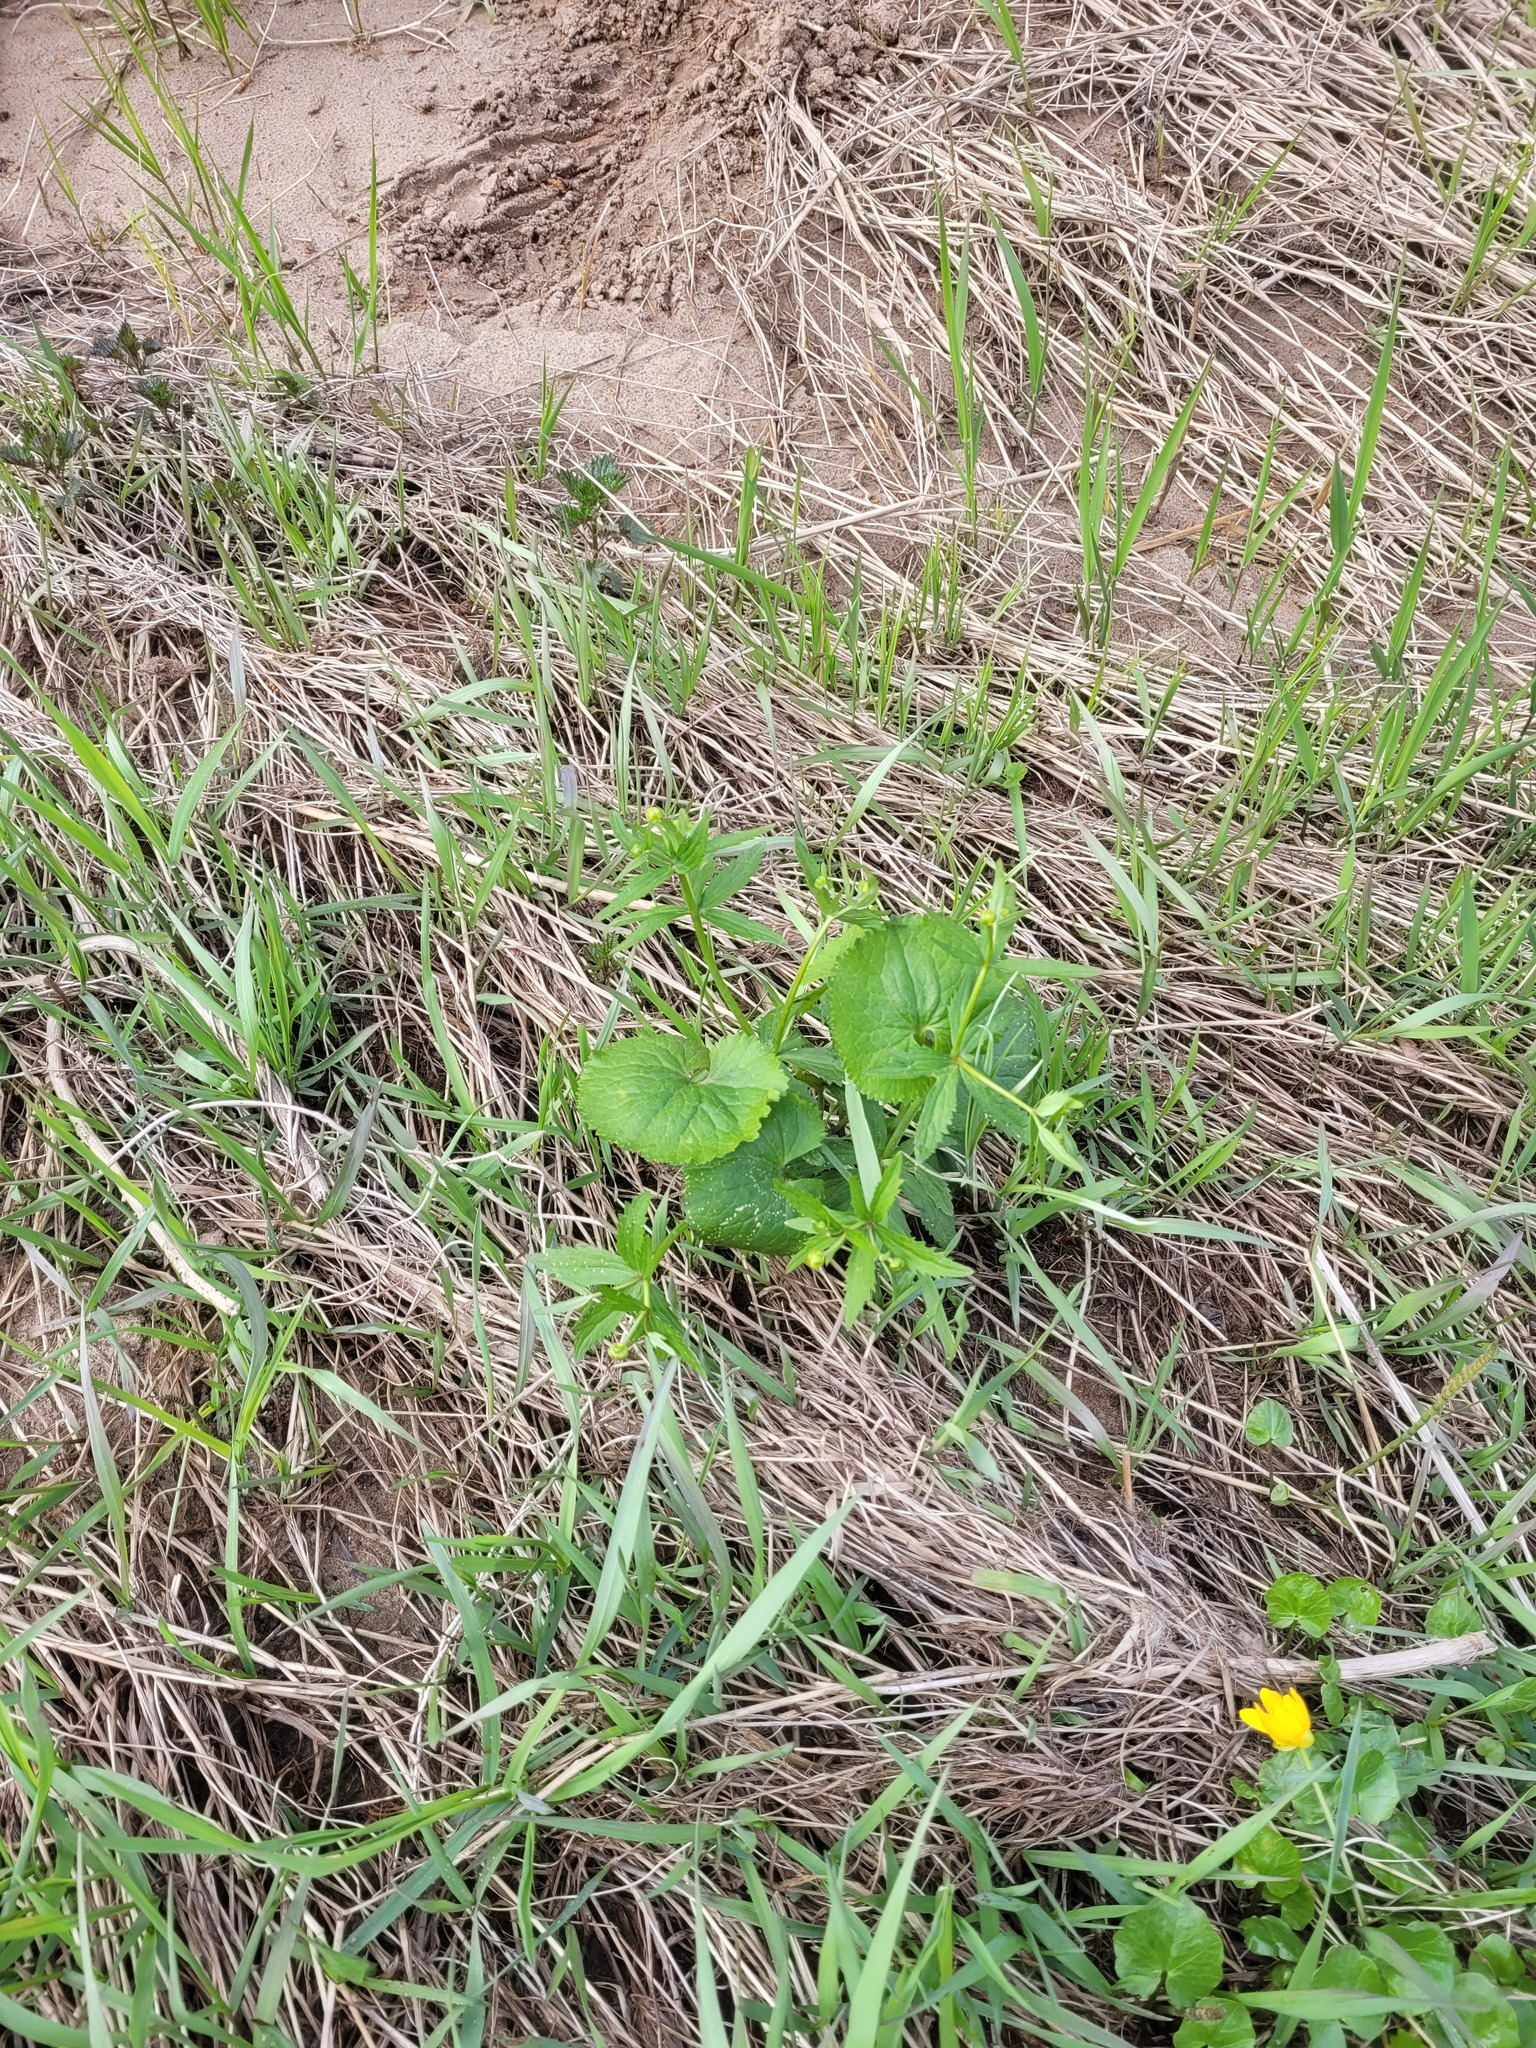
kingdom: Plantae
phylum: Tracheophyta
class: Magnoliopsida
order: Ranunculales
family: Ranunculaceae
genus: Ranunculus
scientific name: Ranunculus cassubicus
